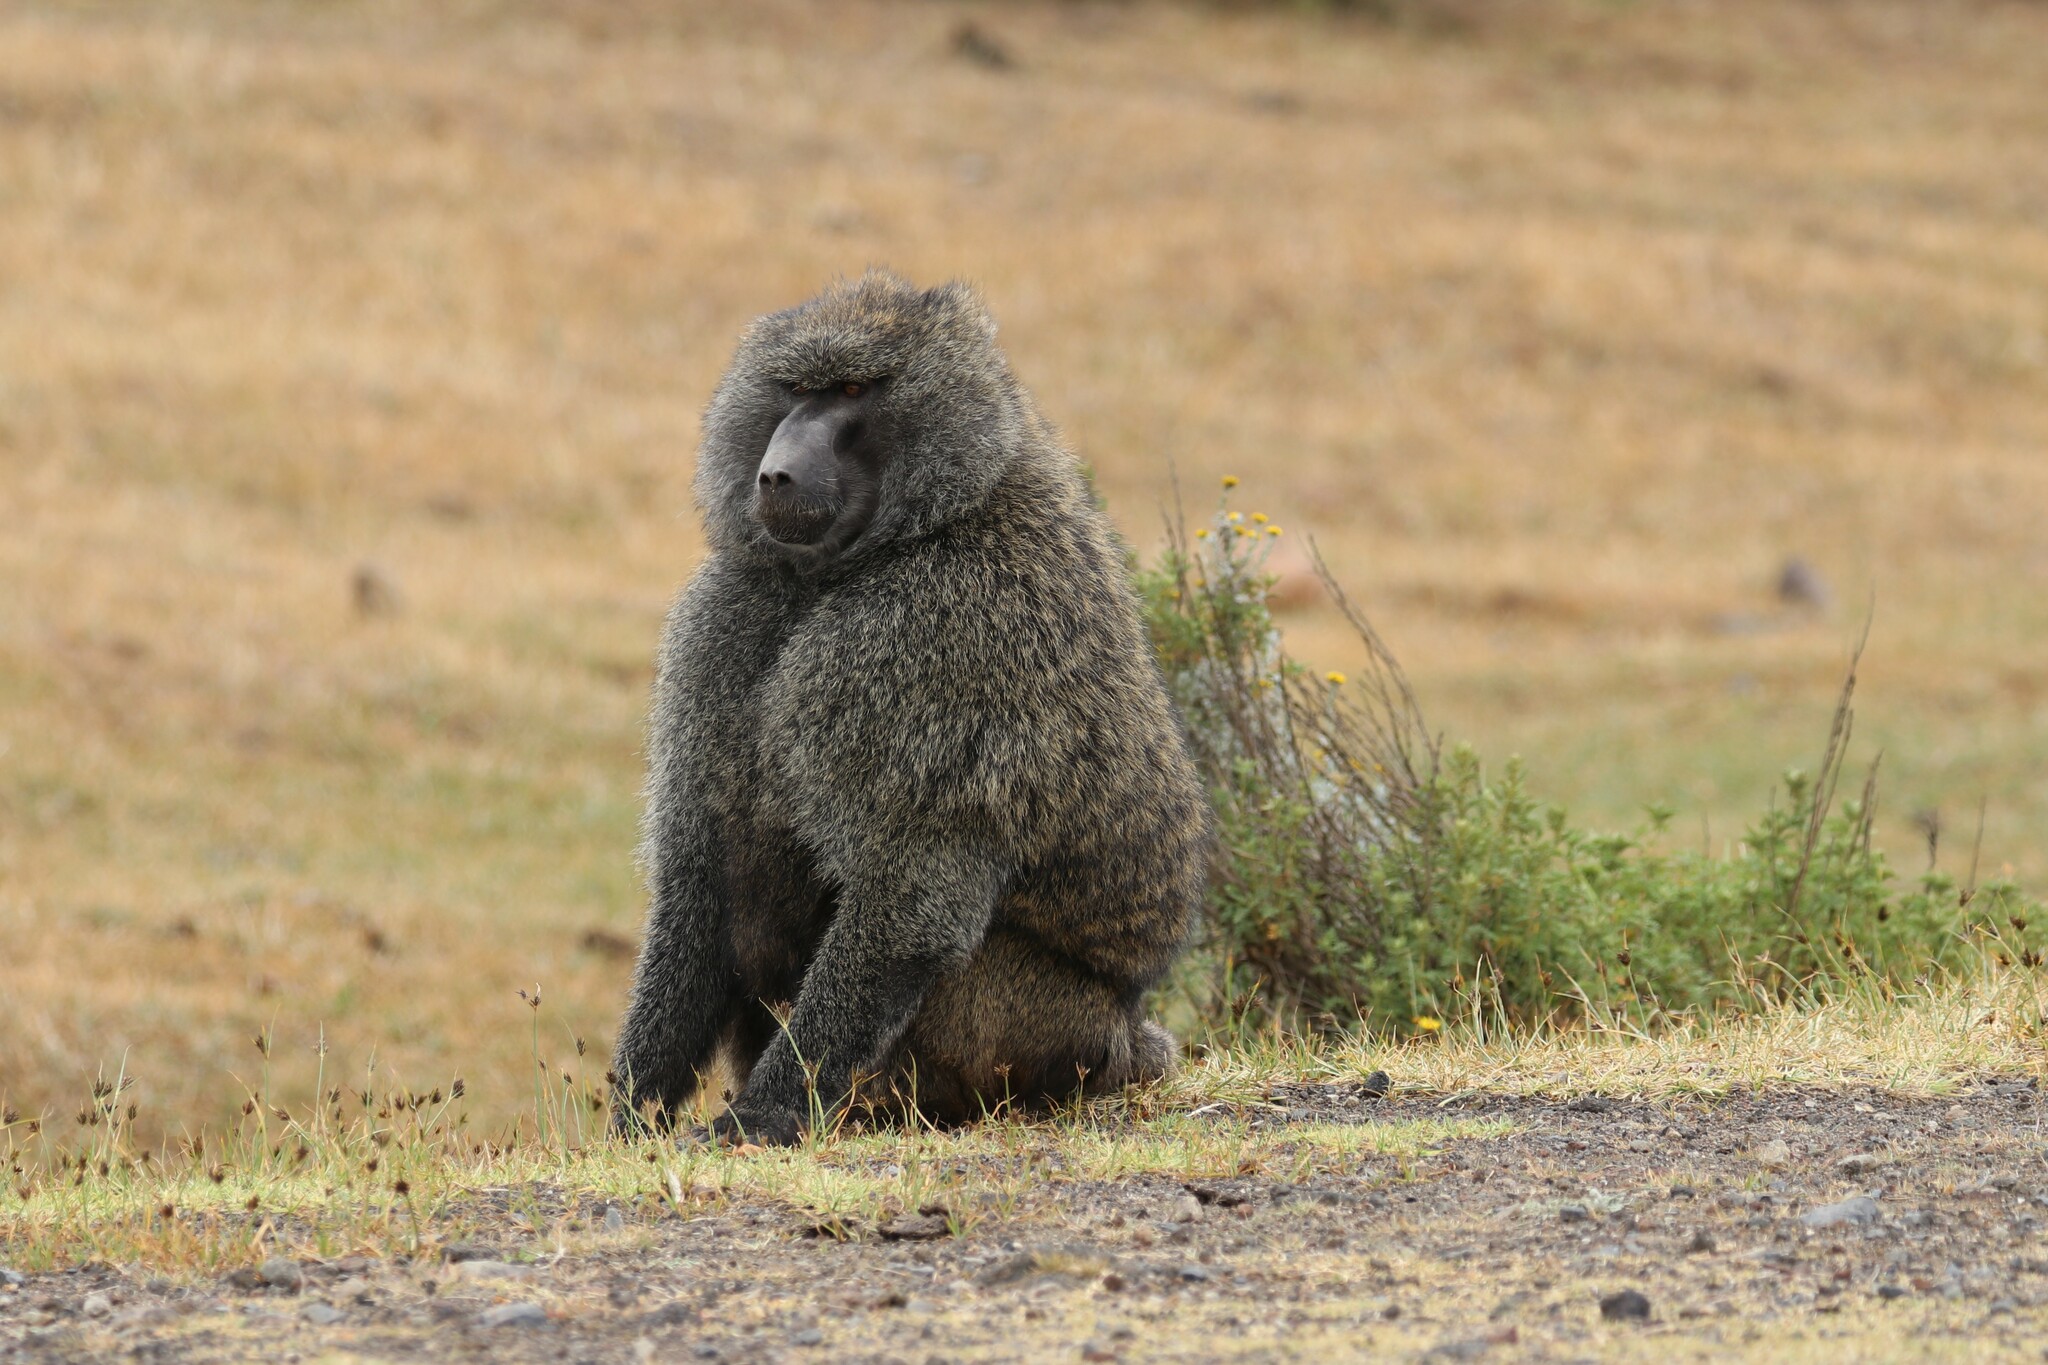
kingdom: Animalia
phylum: Chordata
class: Mammalia
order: Primates
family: Cercopithecidae
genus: Papio
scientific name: Papio anubis
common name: Olive baboon
